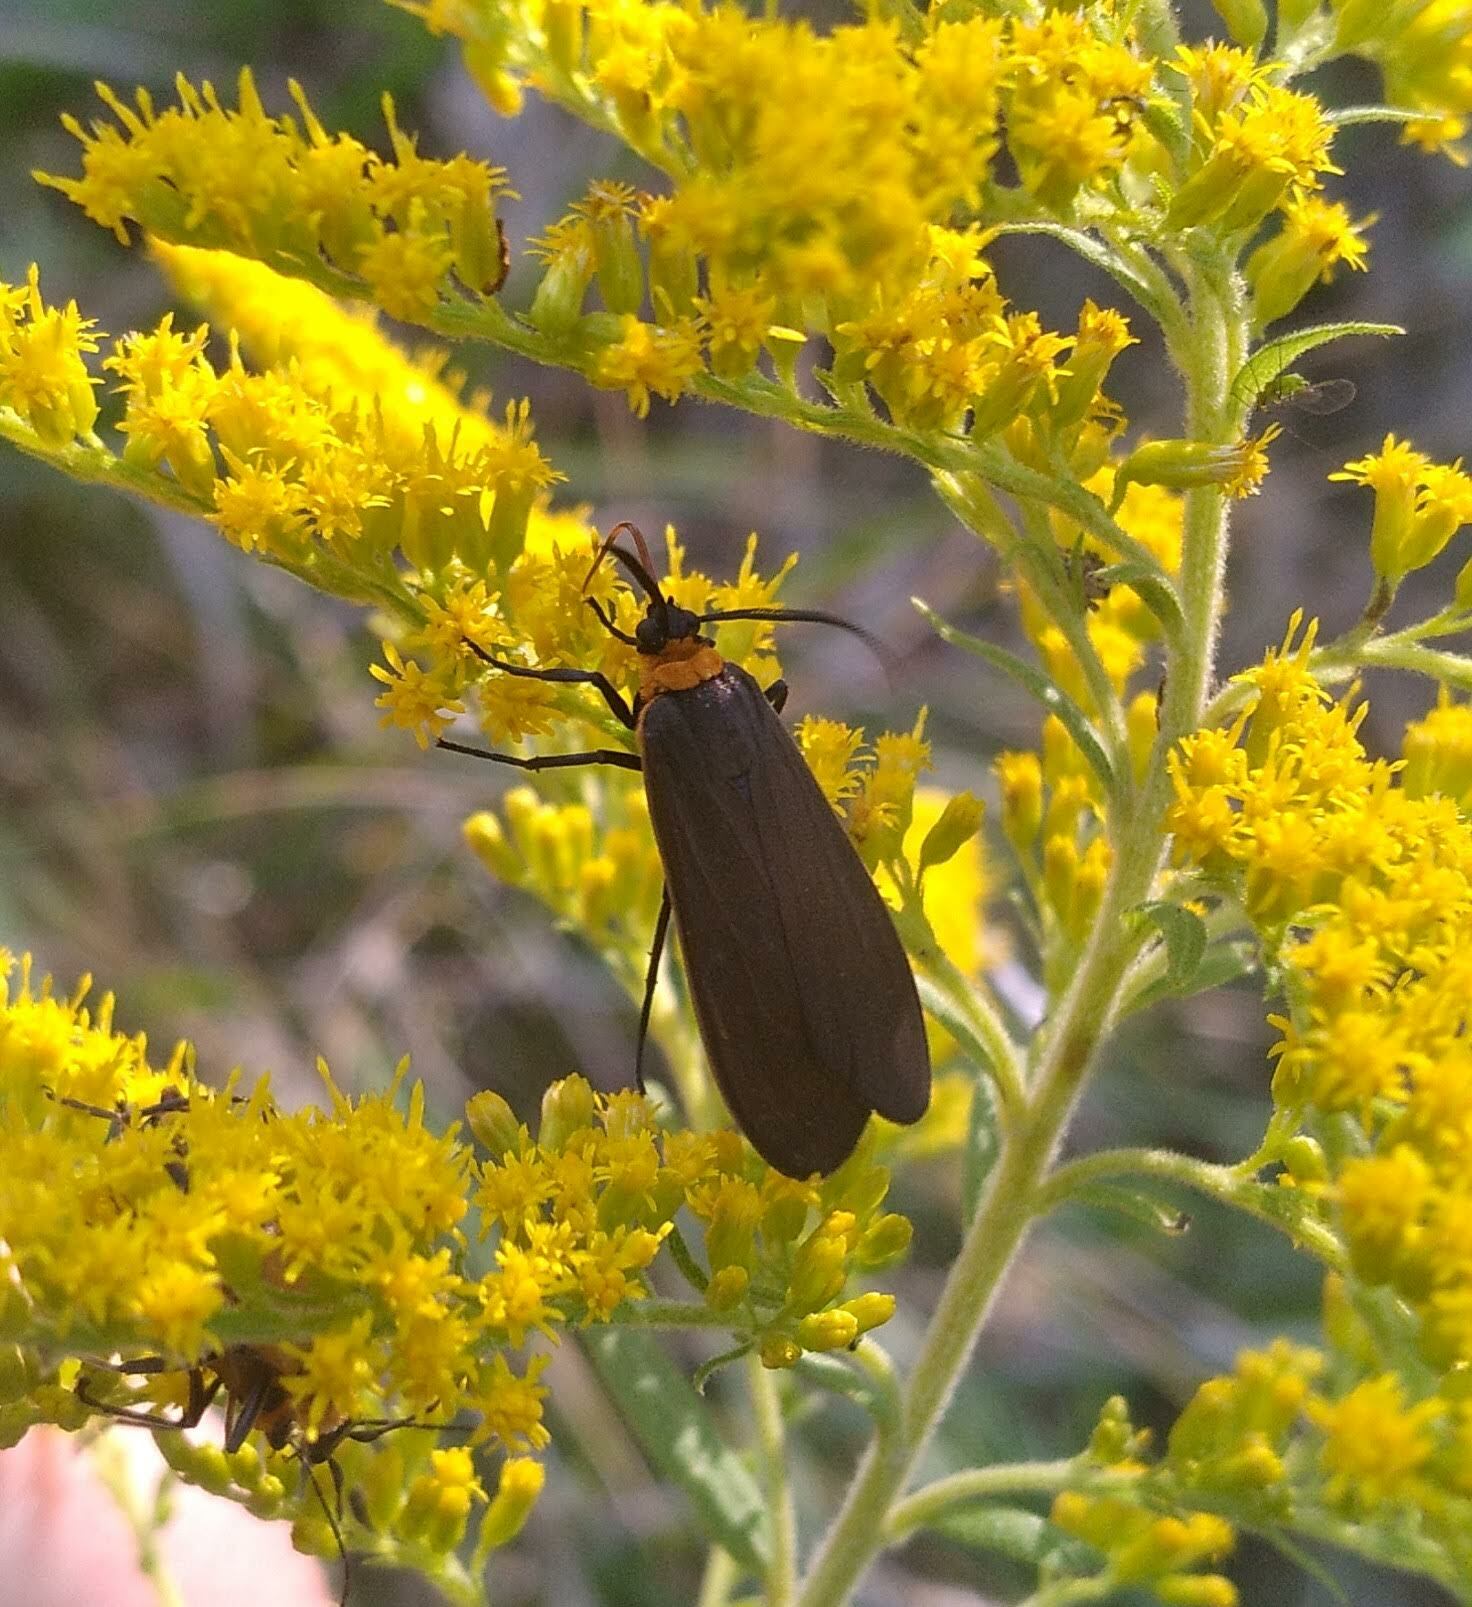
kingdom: Animalia
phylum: Arthropoda
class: Insecta
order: Lepidoptera
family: Erebidae
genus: Cisseps
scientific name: Cisseps fulvicollis
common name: Yellow-collared scape moth
